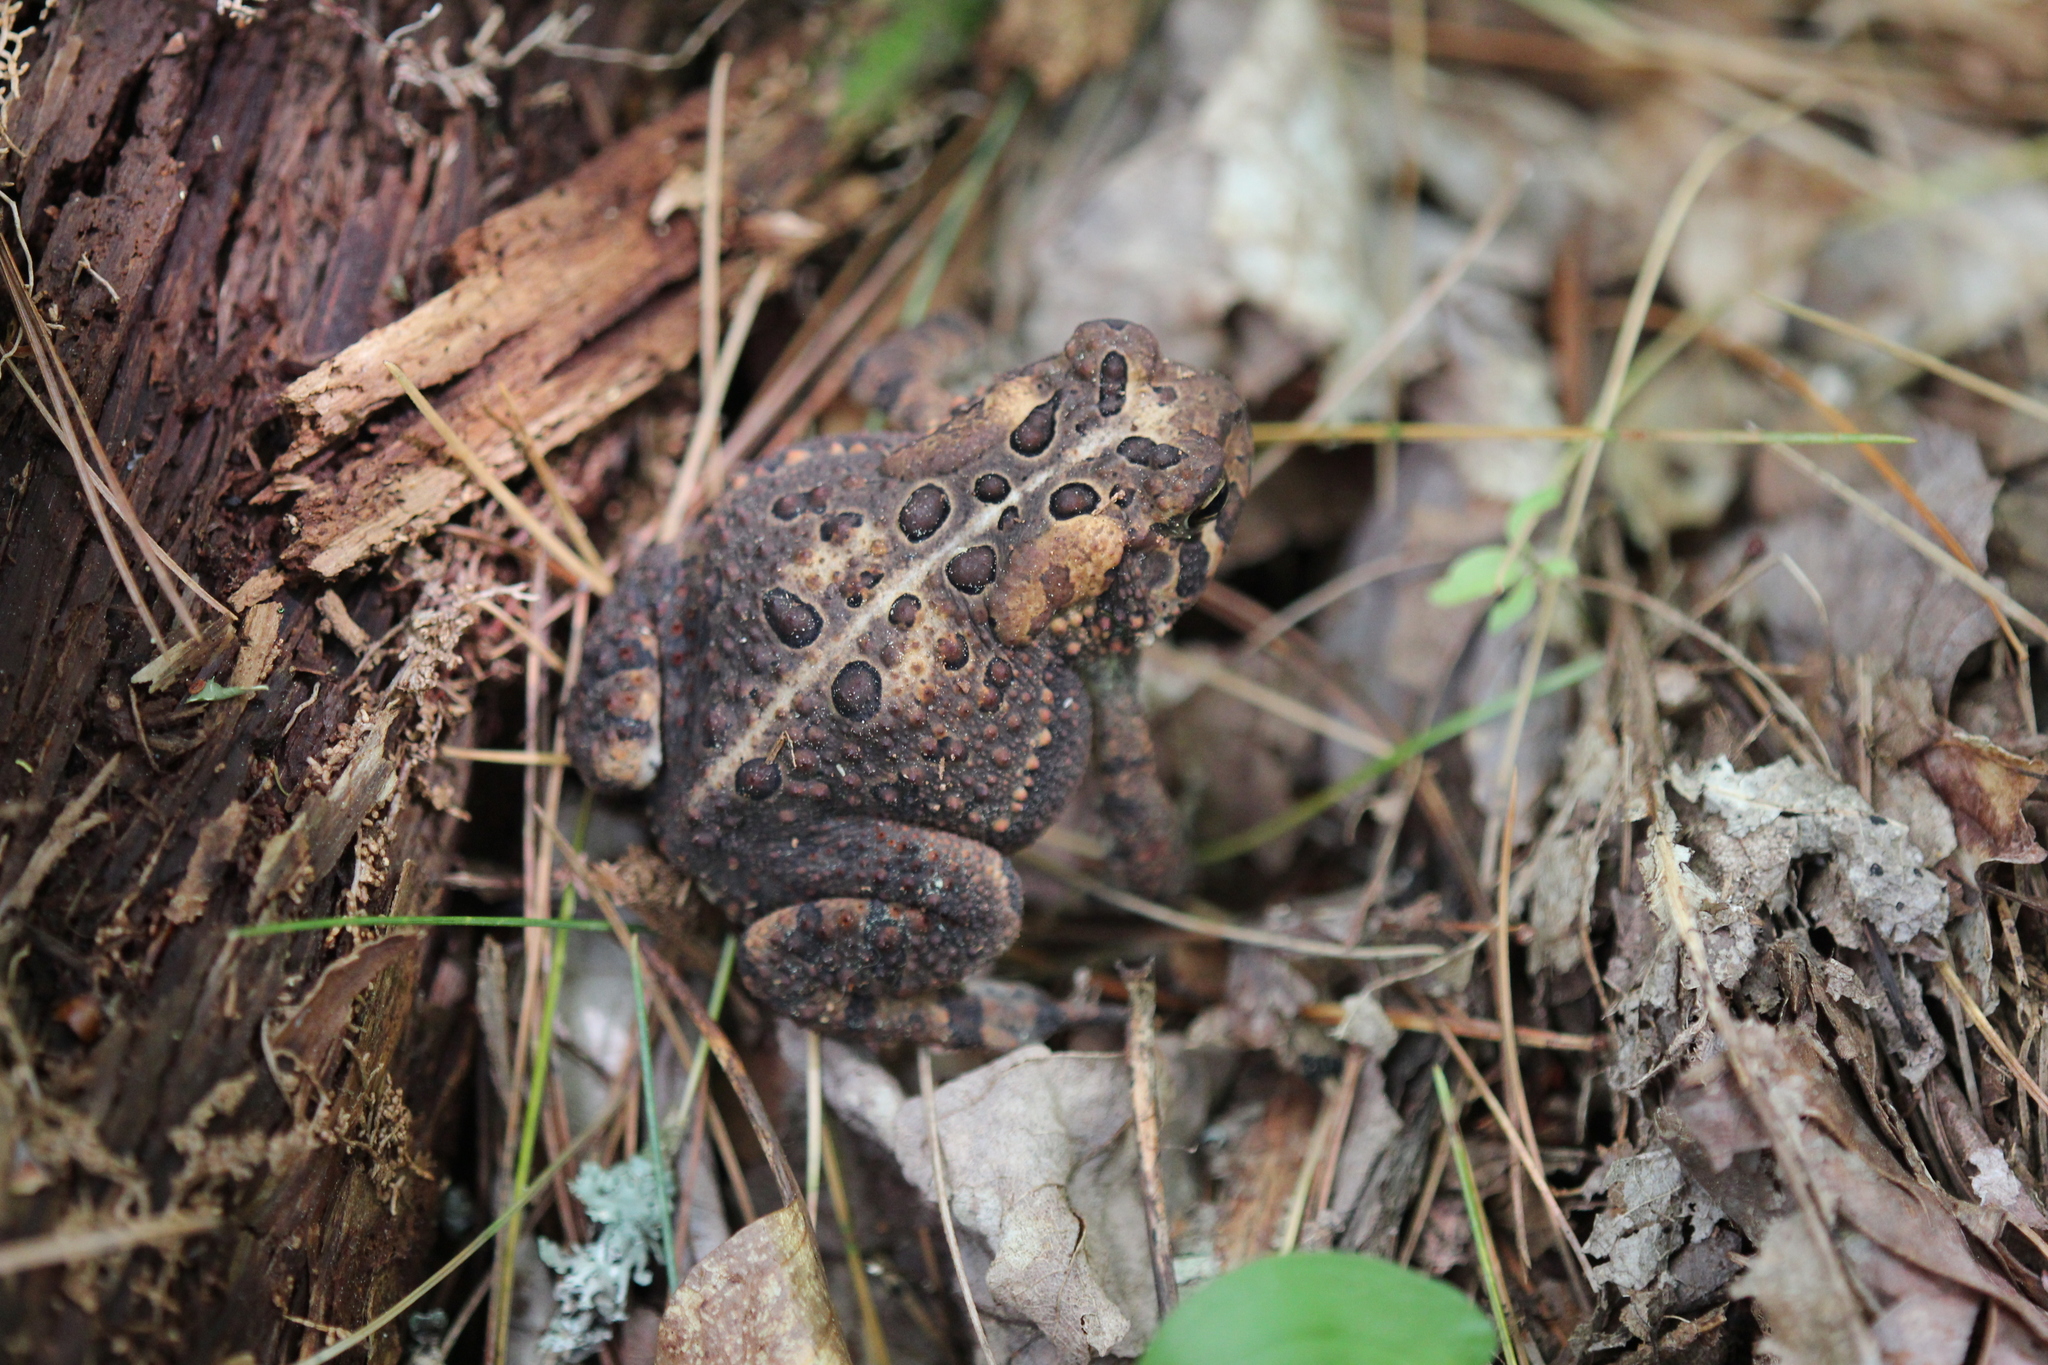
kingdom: Animalia
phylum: Chordata
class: Amphibia
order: Anura
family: Bufonidae
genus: Anaxyrus
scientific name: Anaxyrus americanus
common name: American toad
